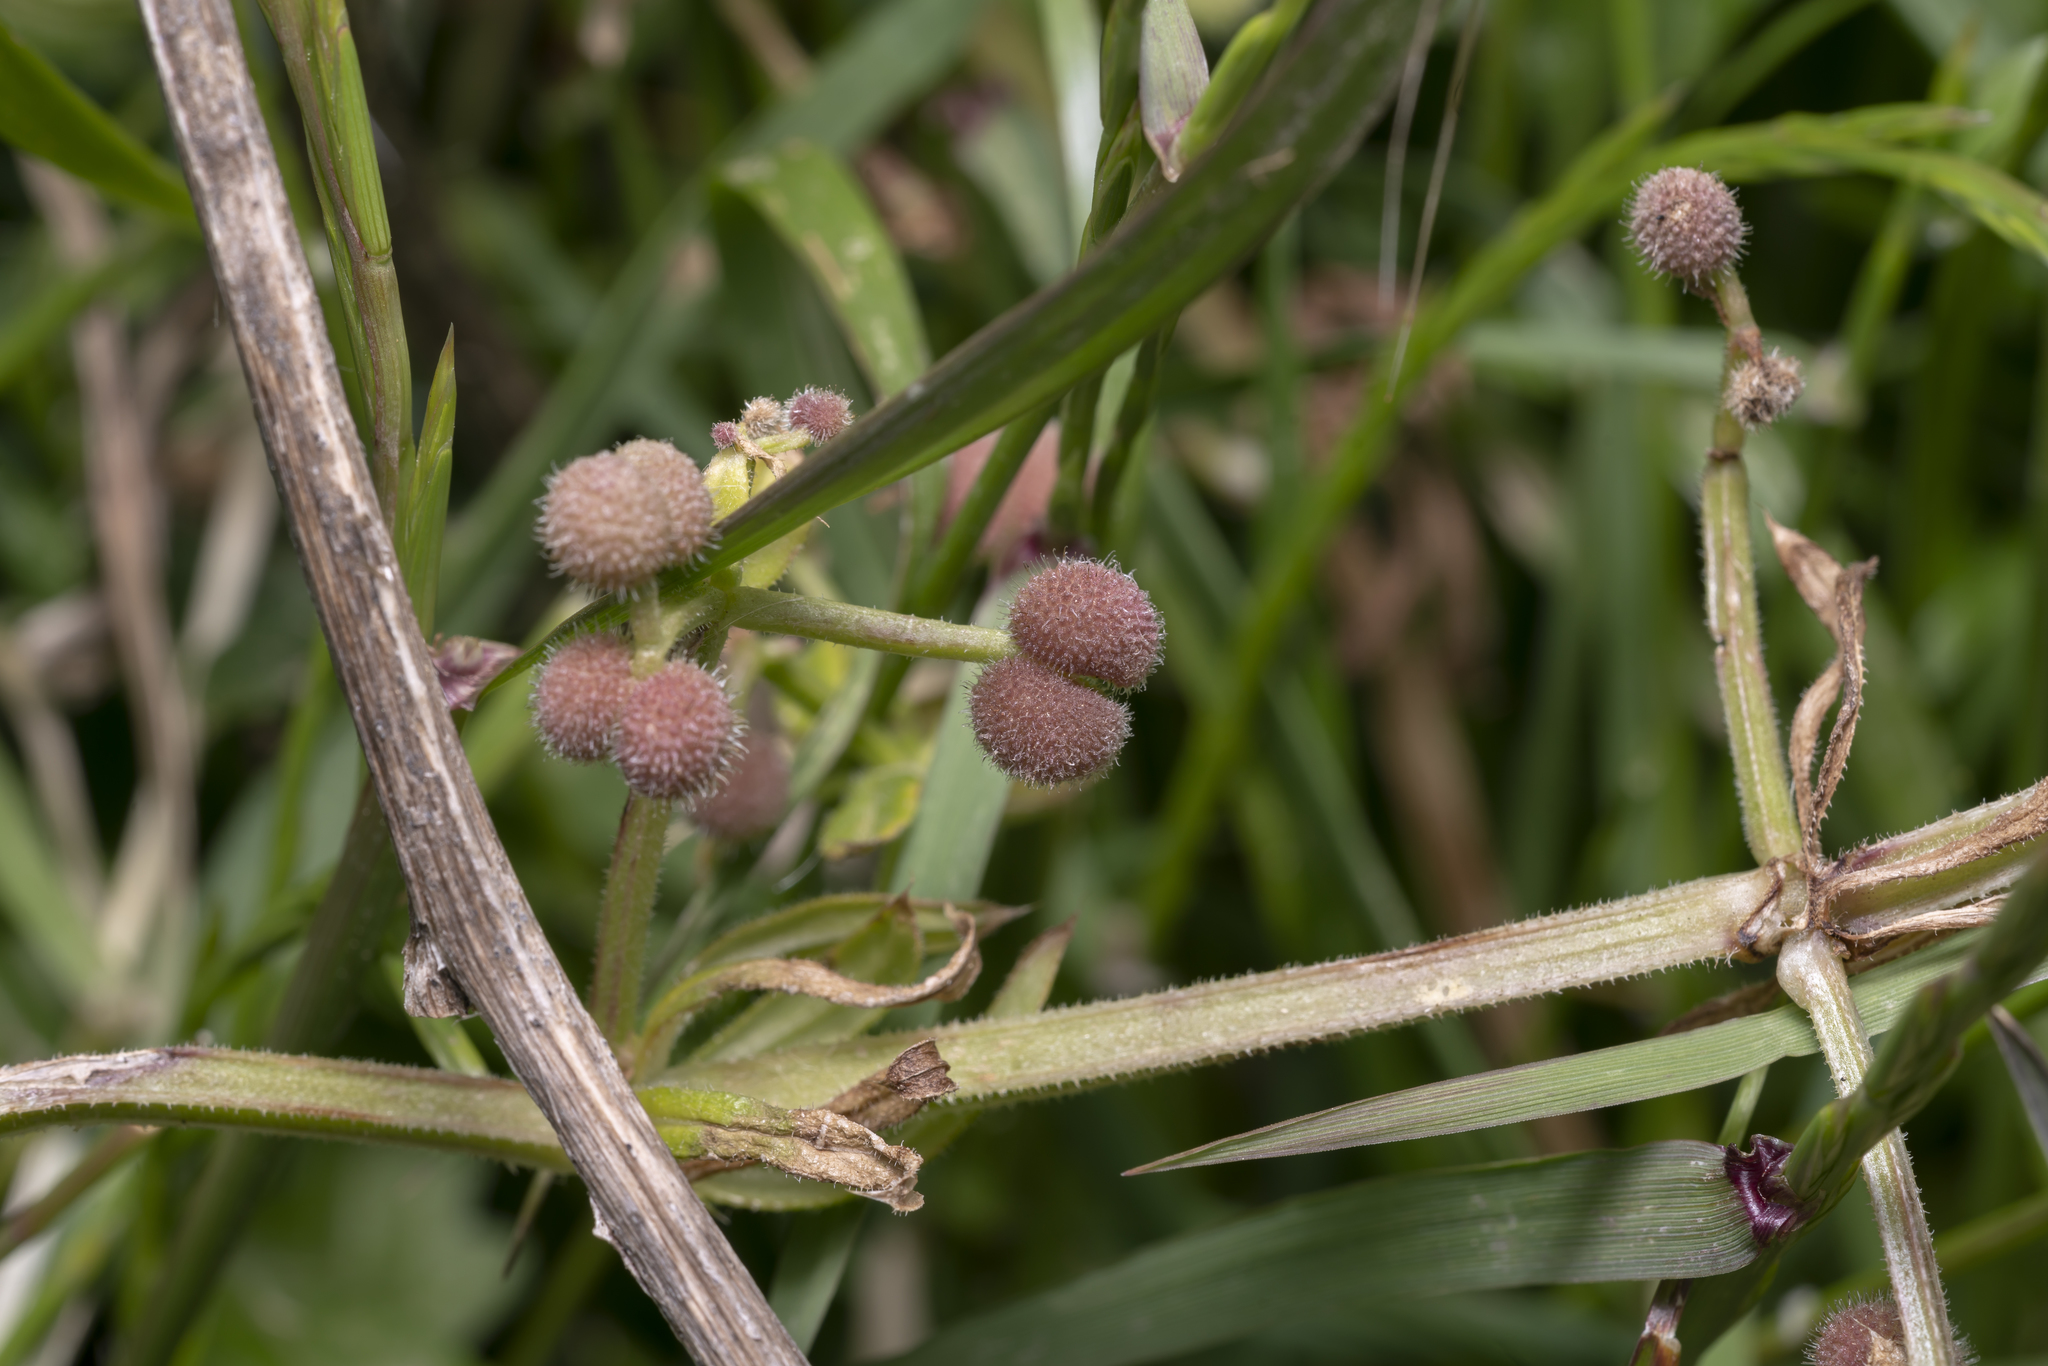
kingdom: Plantae
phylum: Tracheophyta
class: Magnoliopsida
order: Gentianales
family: Rubiaceae
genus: Galium
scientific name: Galium aparine
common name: Cleavers
